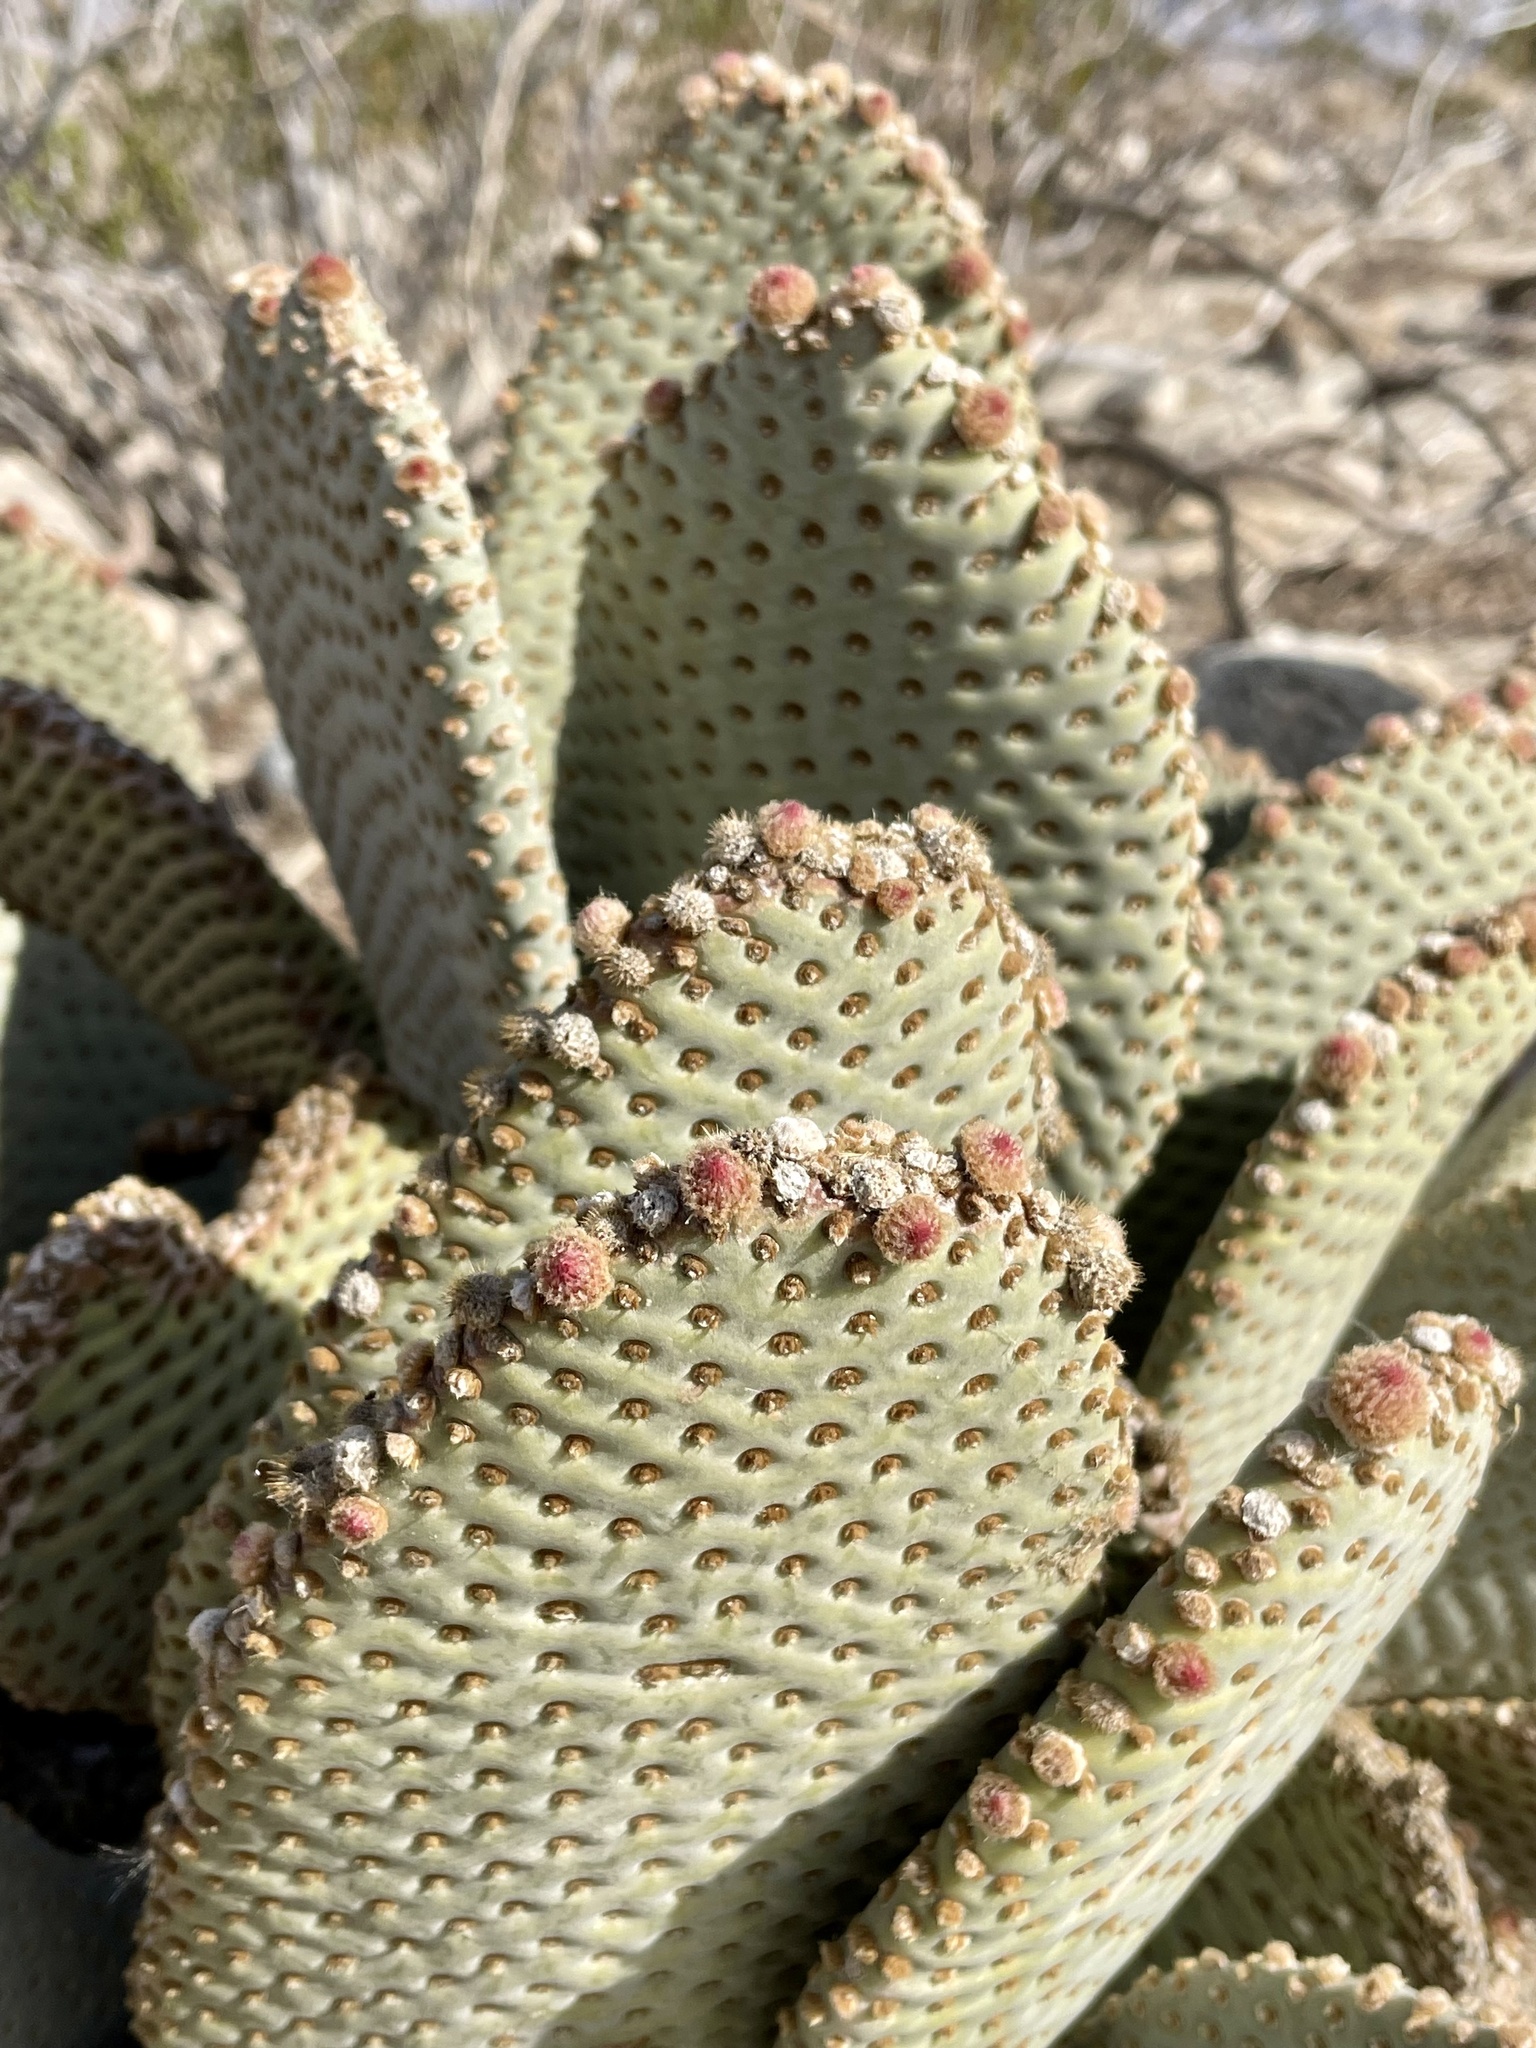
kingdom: Plantae
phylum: Tracheophyta
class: Magnoliopsida
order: Caryophyllales
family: Cactaceae
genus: Opuntia
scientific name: Opuntia basilaris
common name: Beavertail prickly-pear
